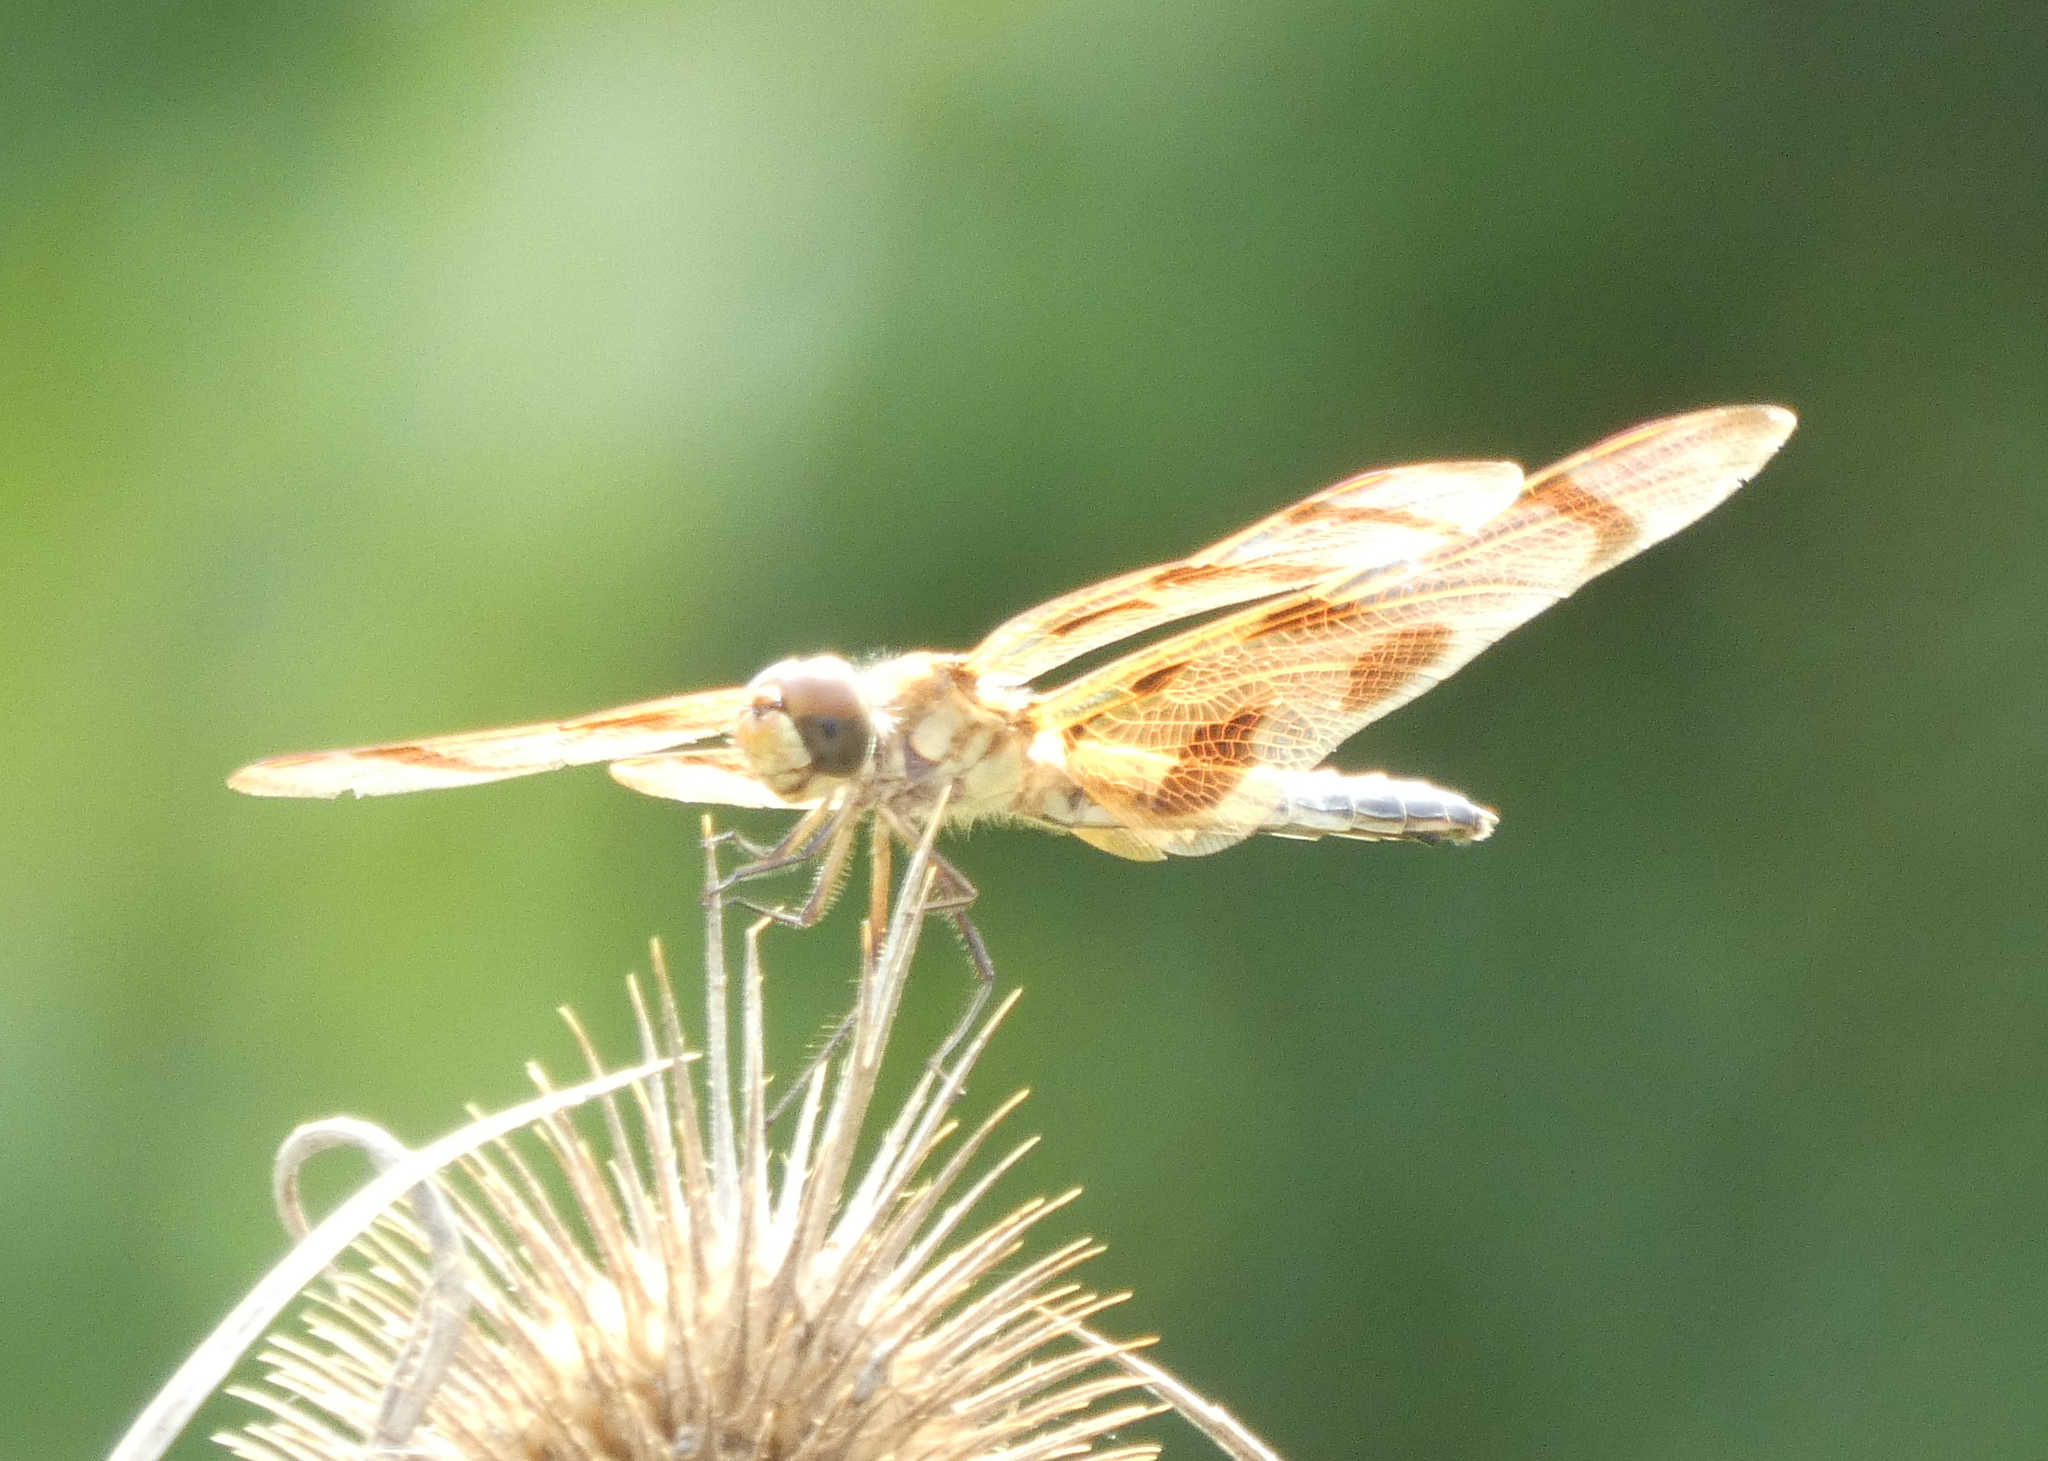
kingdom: Animalia
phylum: Arthropoda
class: Insecta
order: Odonata
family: Libellulidae
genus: Celithemis
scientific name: Celithemis eponina
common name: Halloween pennant
